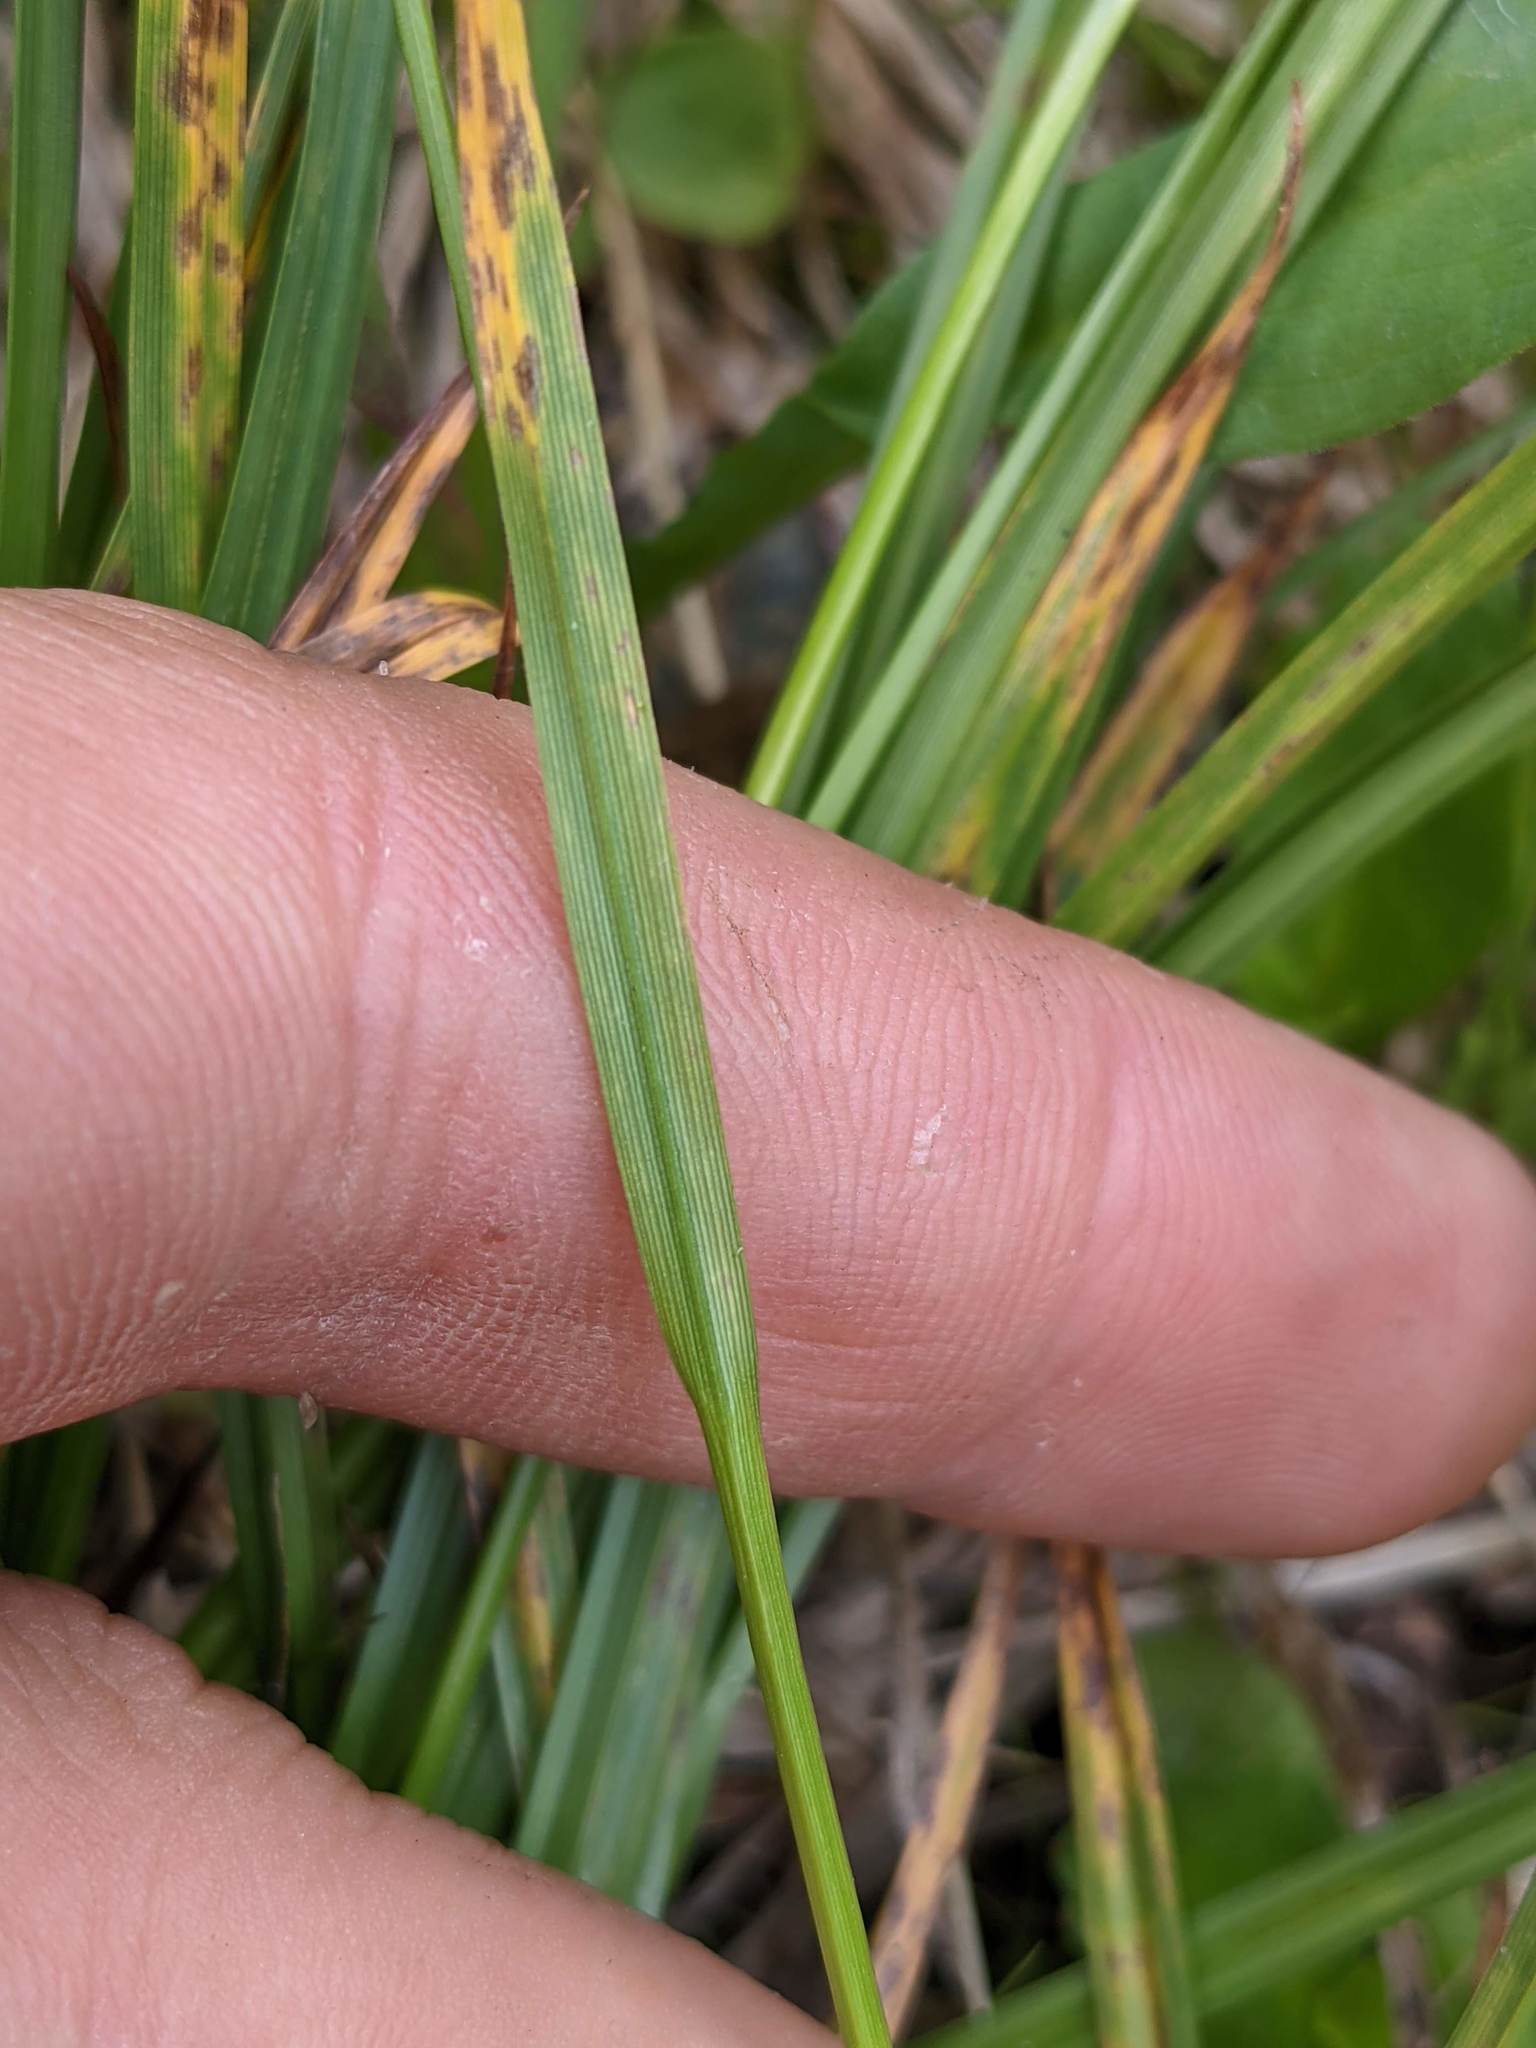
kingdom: Plantae
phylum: Tracheophyta
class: Liliopsida
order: Poales
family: Cyperaceae
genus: Carex
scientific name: Carex luzulina
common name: Spring sedge
